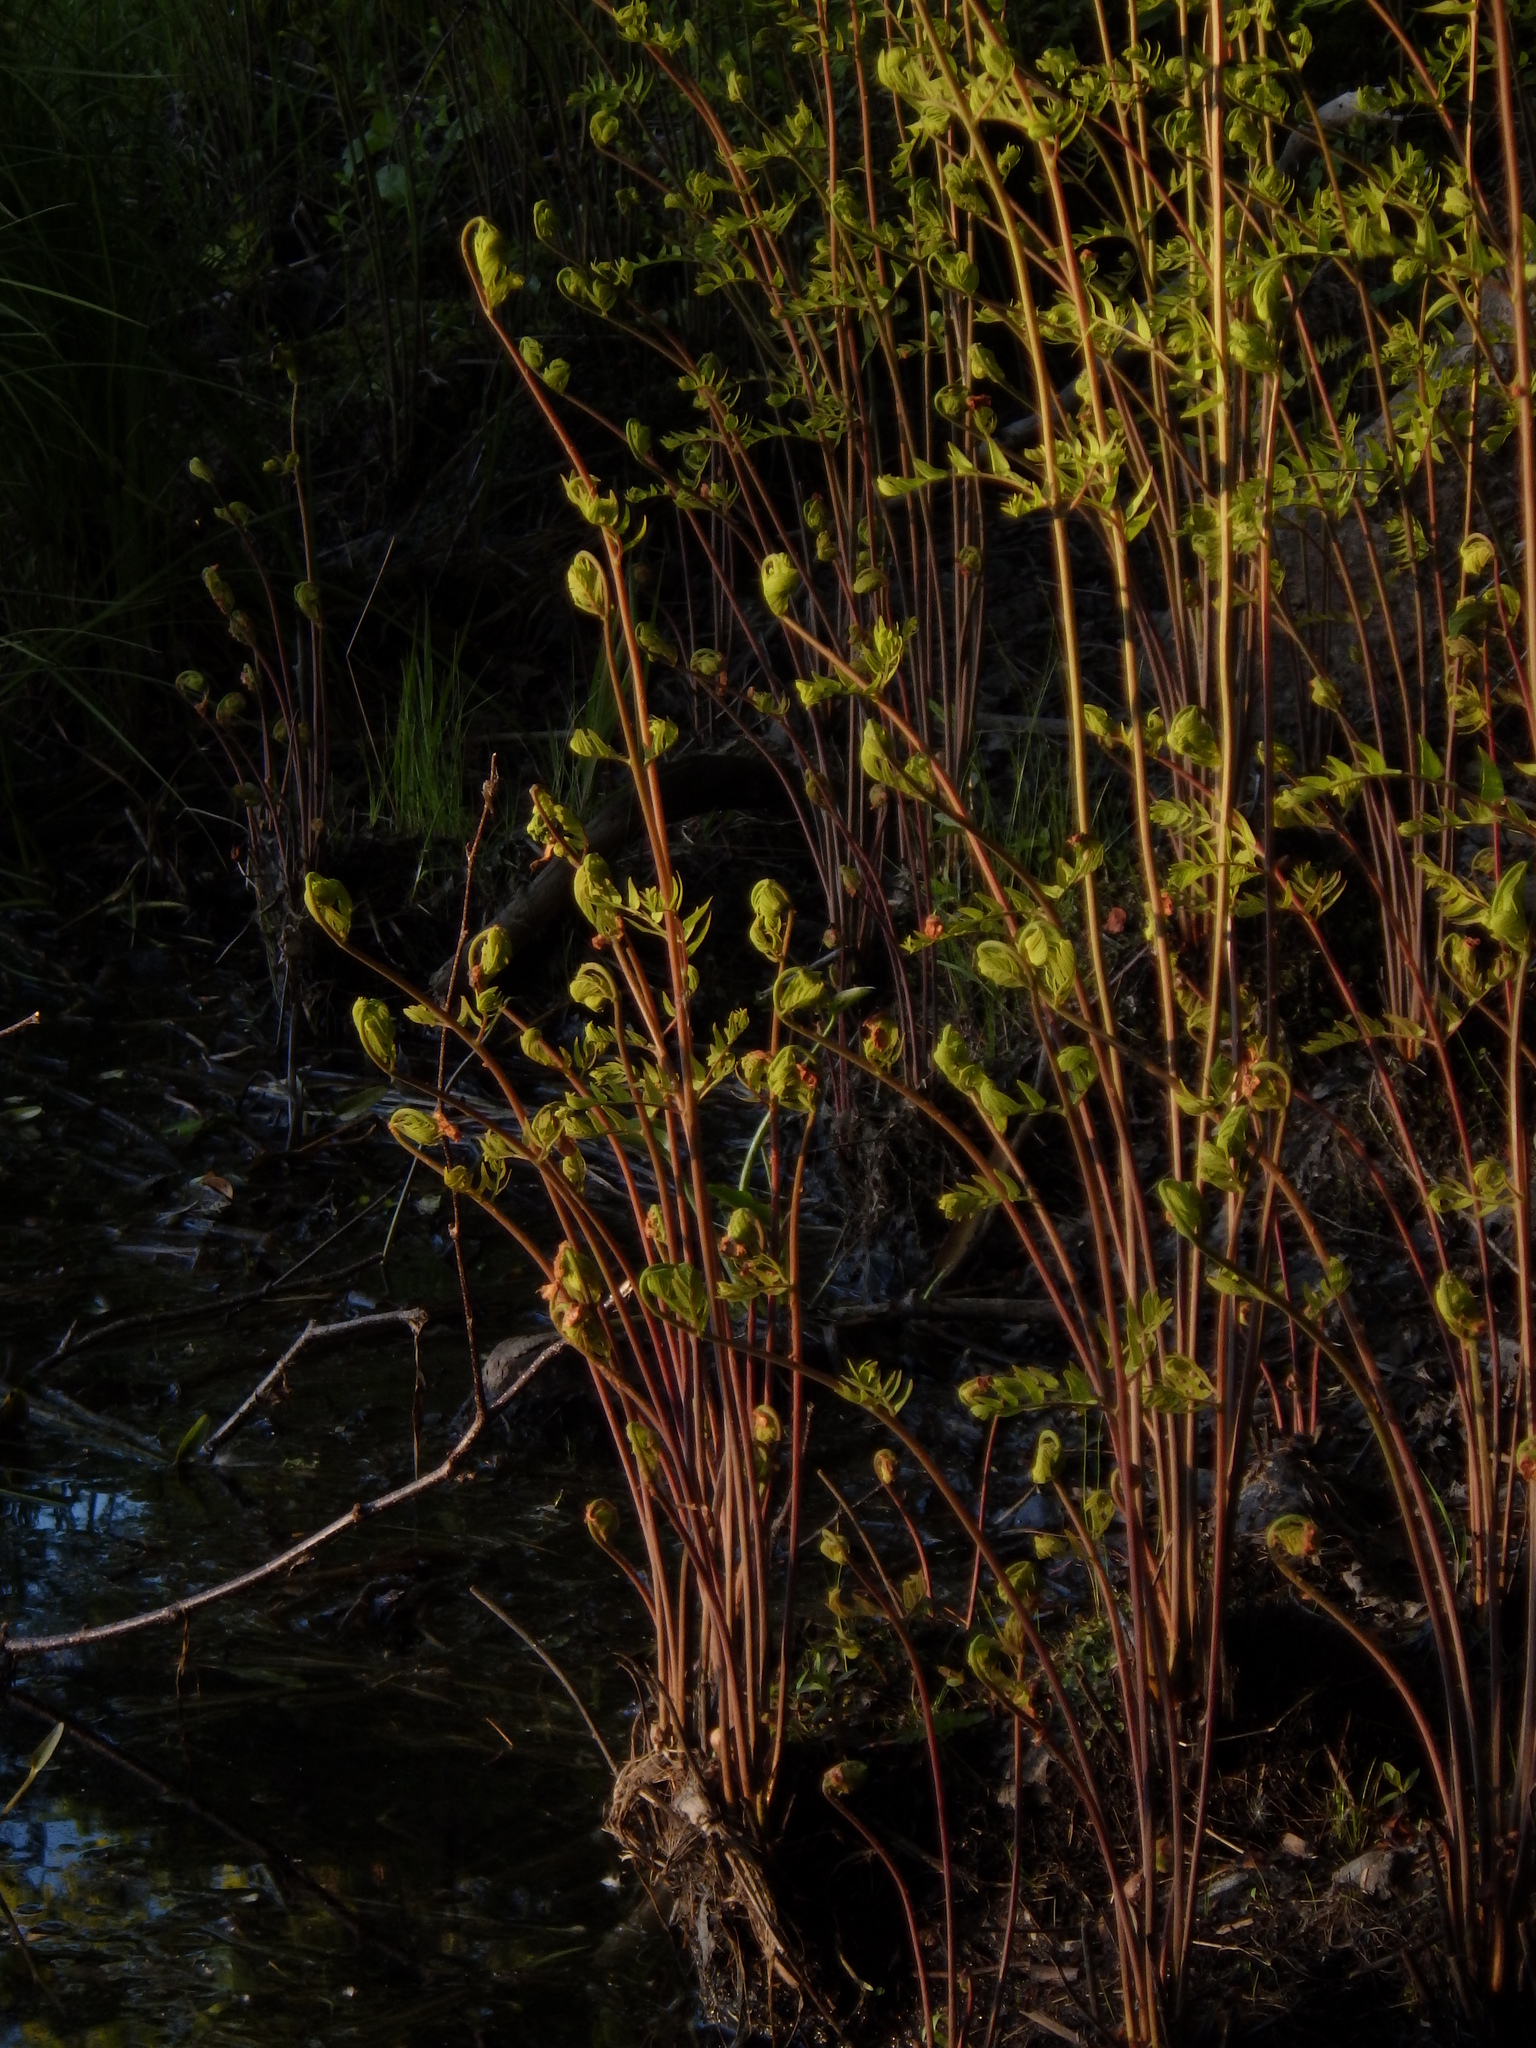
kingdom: Plantae
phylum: Tracheophyta
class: Polypodiopsida
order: Osmundales
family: Osmundaceae
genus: Osmunda
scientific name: Osmunda spectabilis
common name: American royal fern
